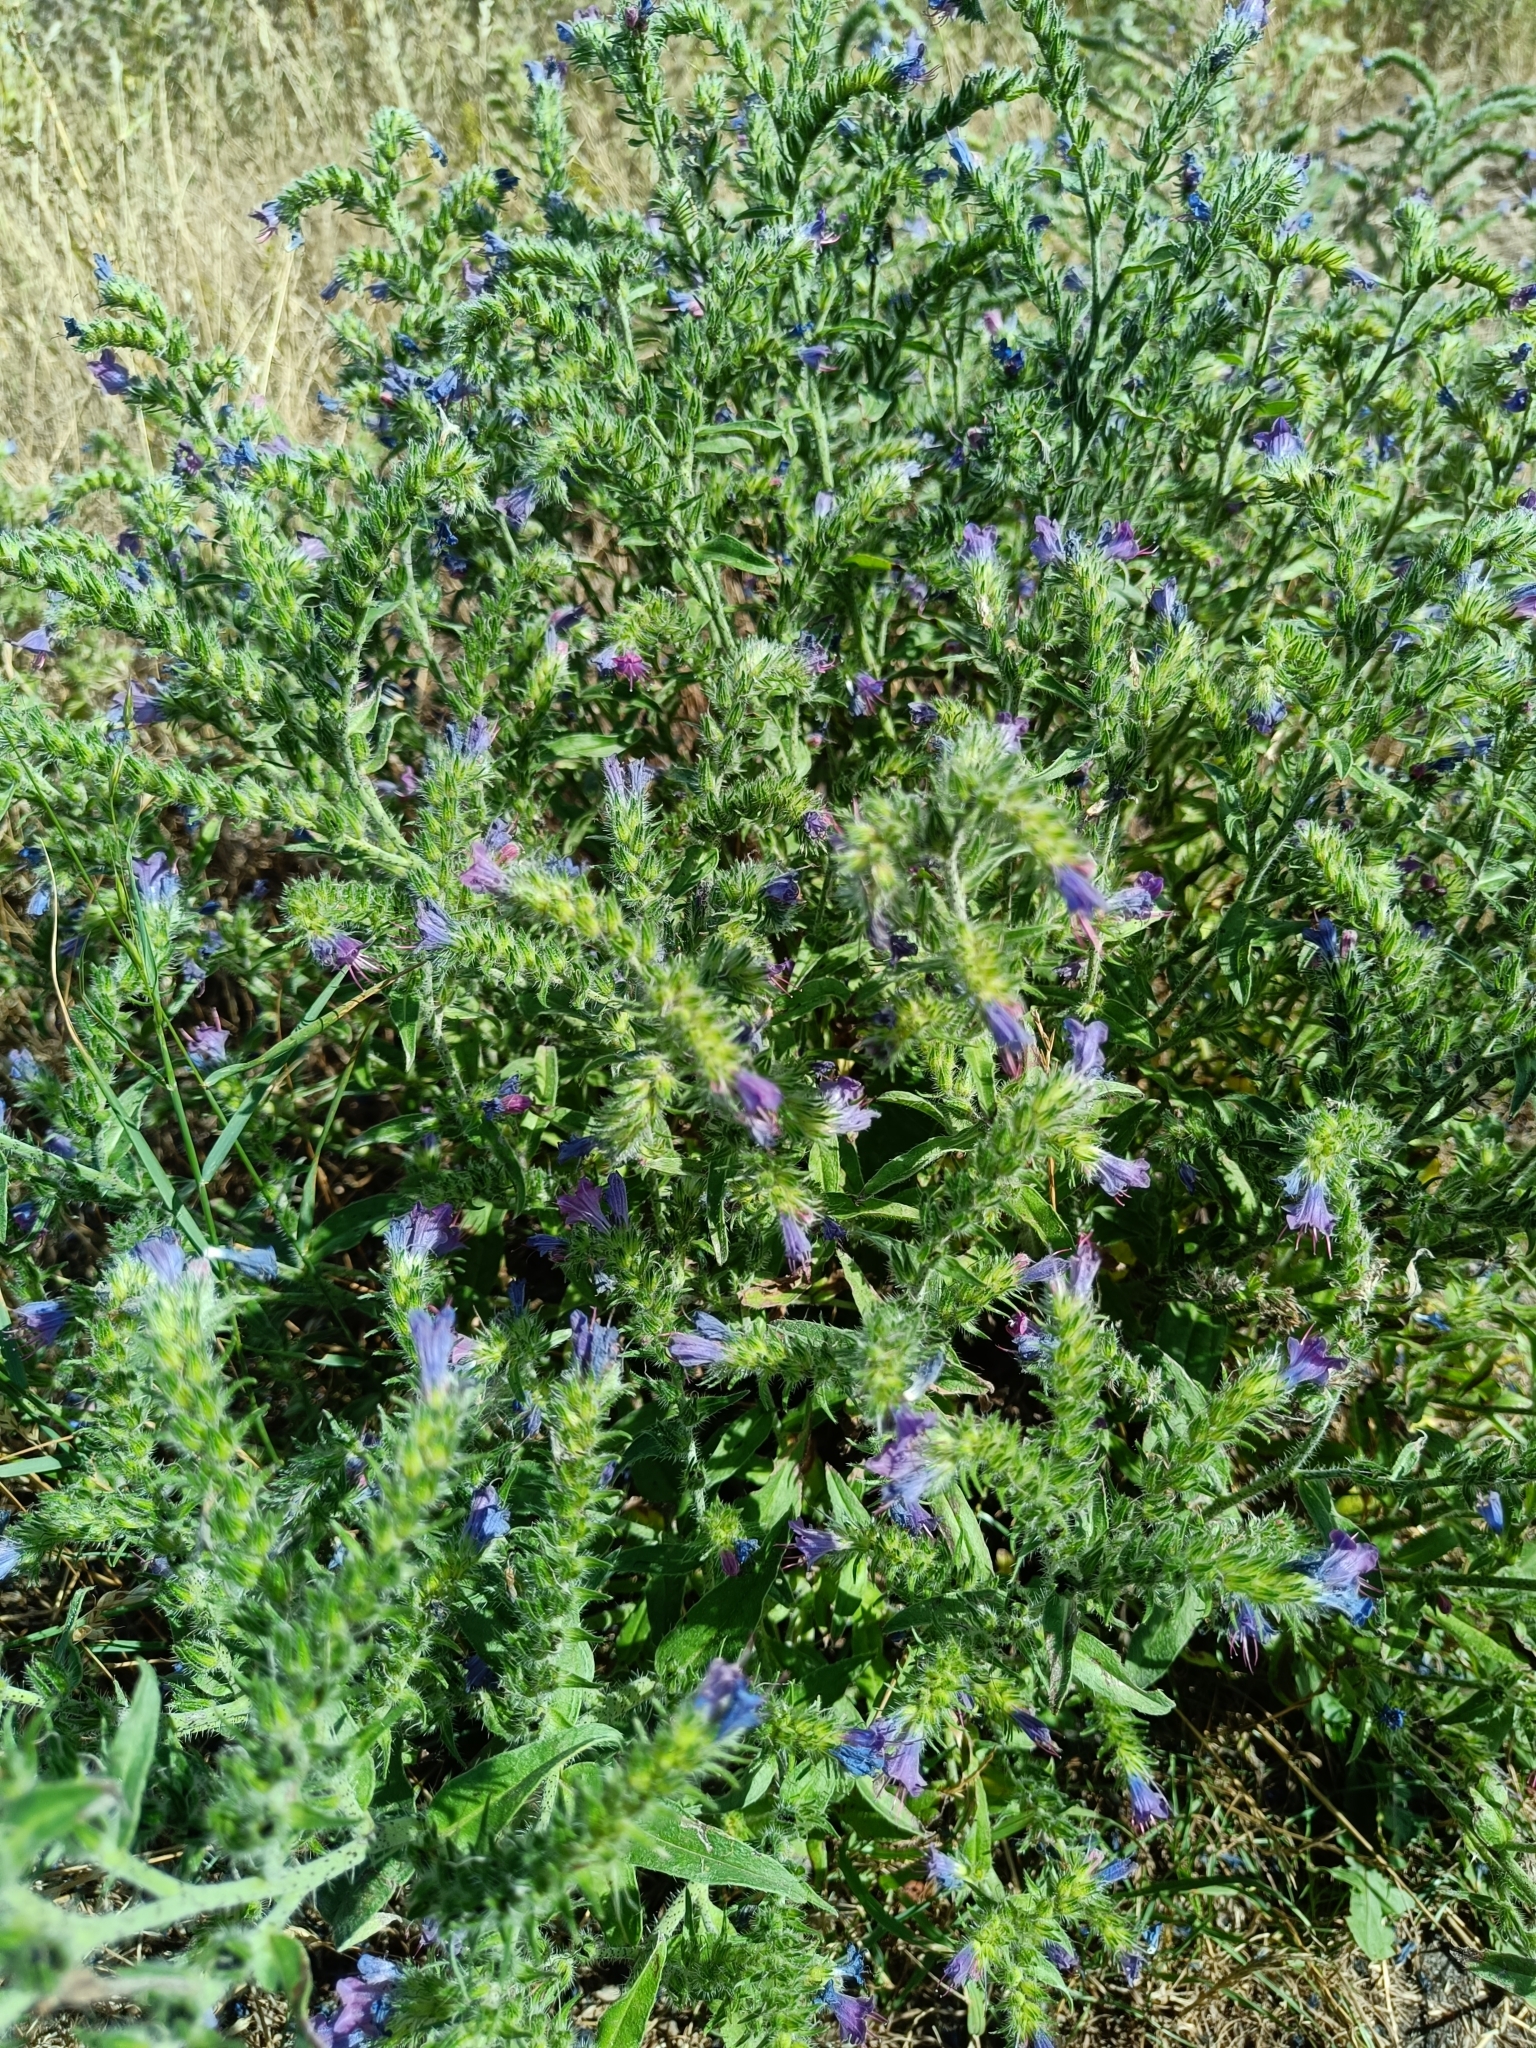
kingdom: Plantae
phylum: Tracheophyta
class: Magnoliopsida
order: Boraginales
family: Boraginaceae
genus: Echium
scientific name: Echium vulgare
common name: Common viper's bugloss
